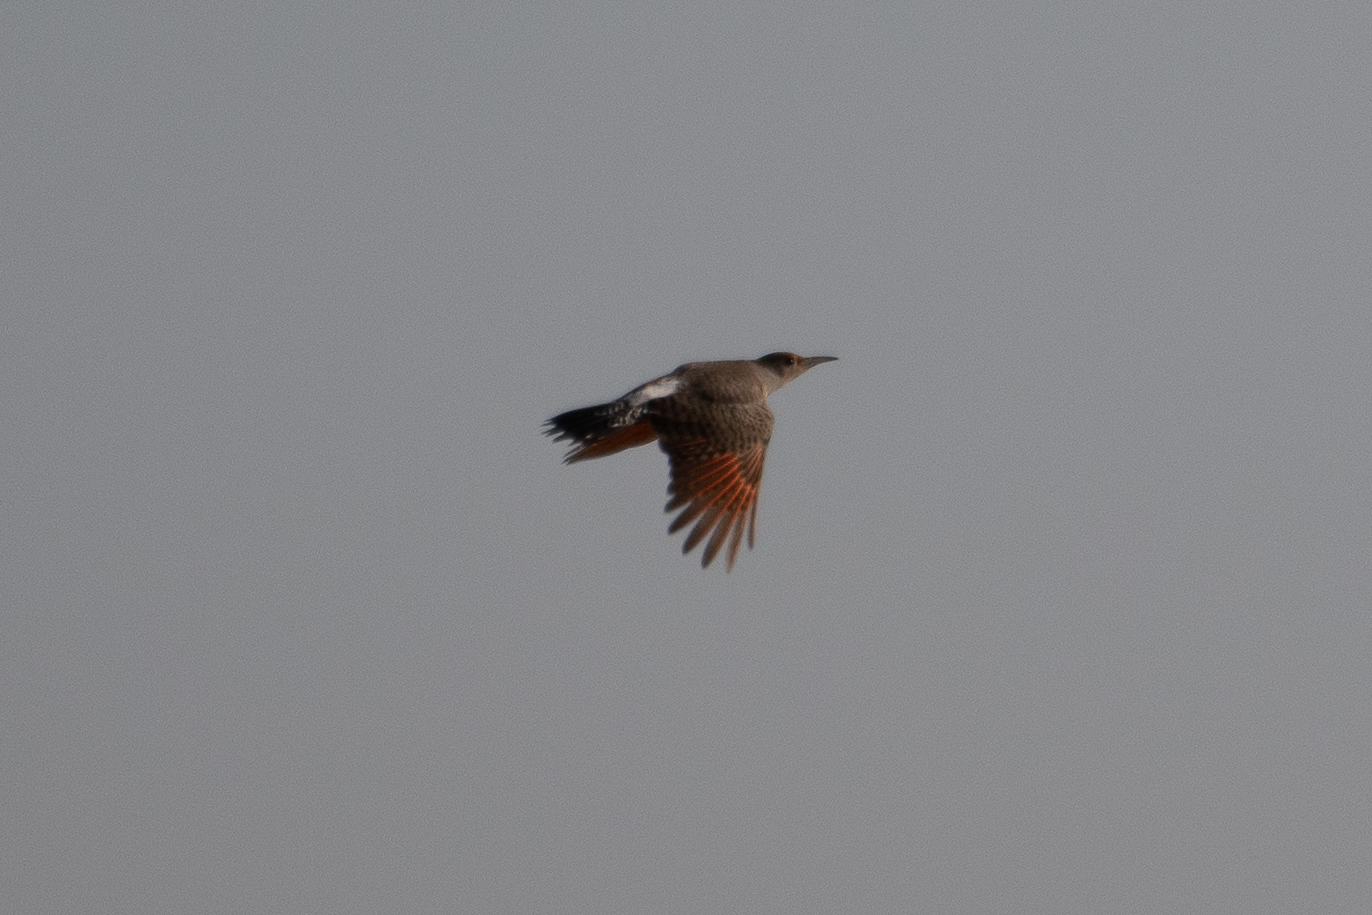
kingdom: Animalia
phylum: Chordata
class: Aves
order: Piciformes
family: Picidae
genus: Colaptes
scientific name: Colaptes auratus
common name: Northern flicker
